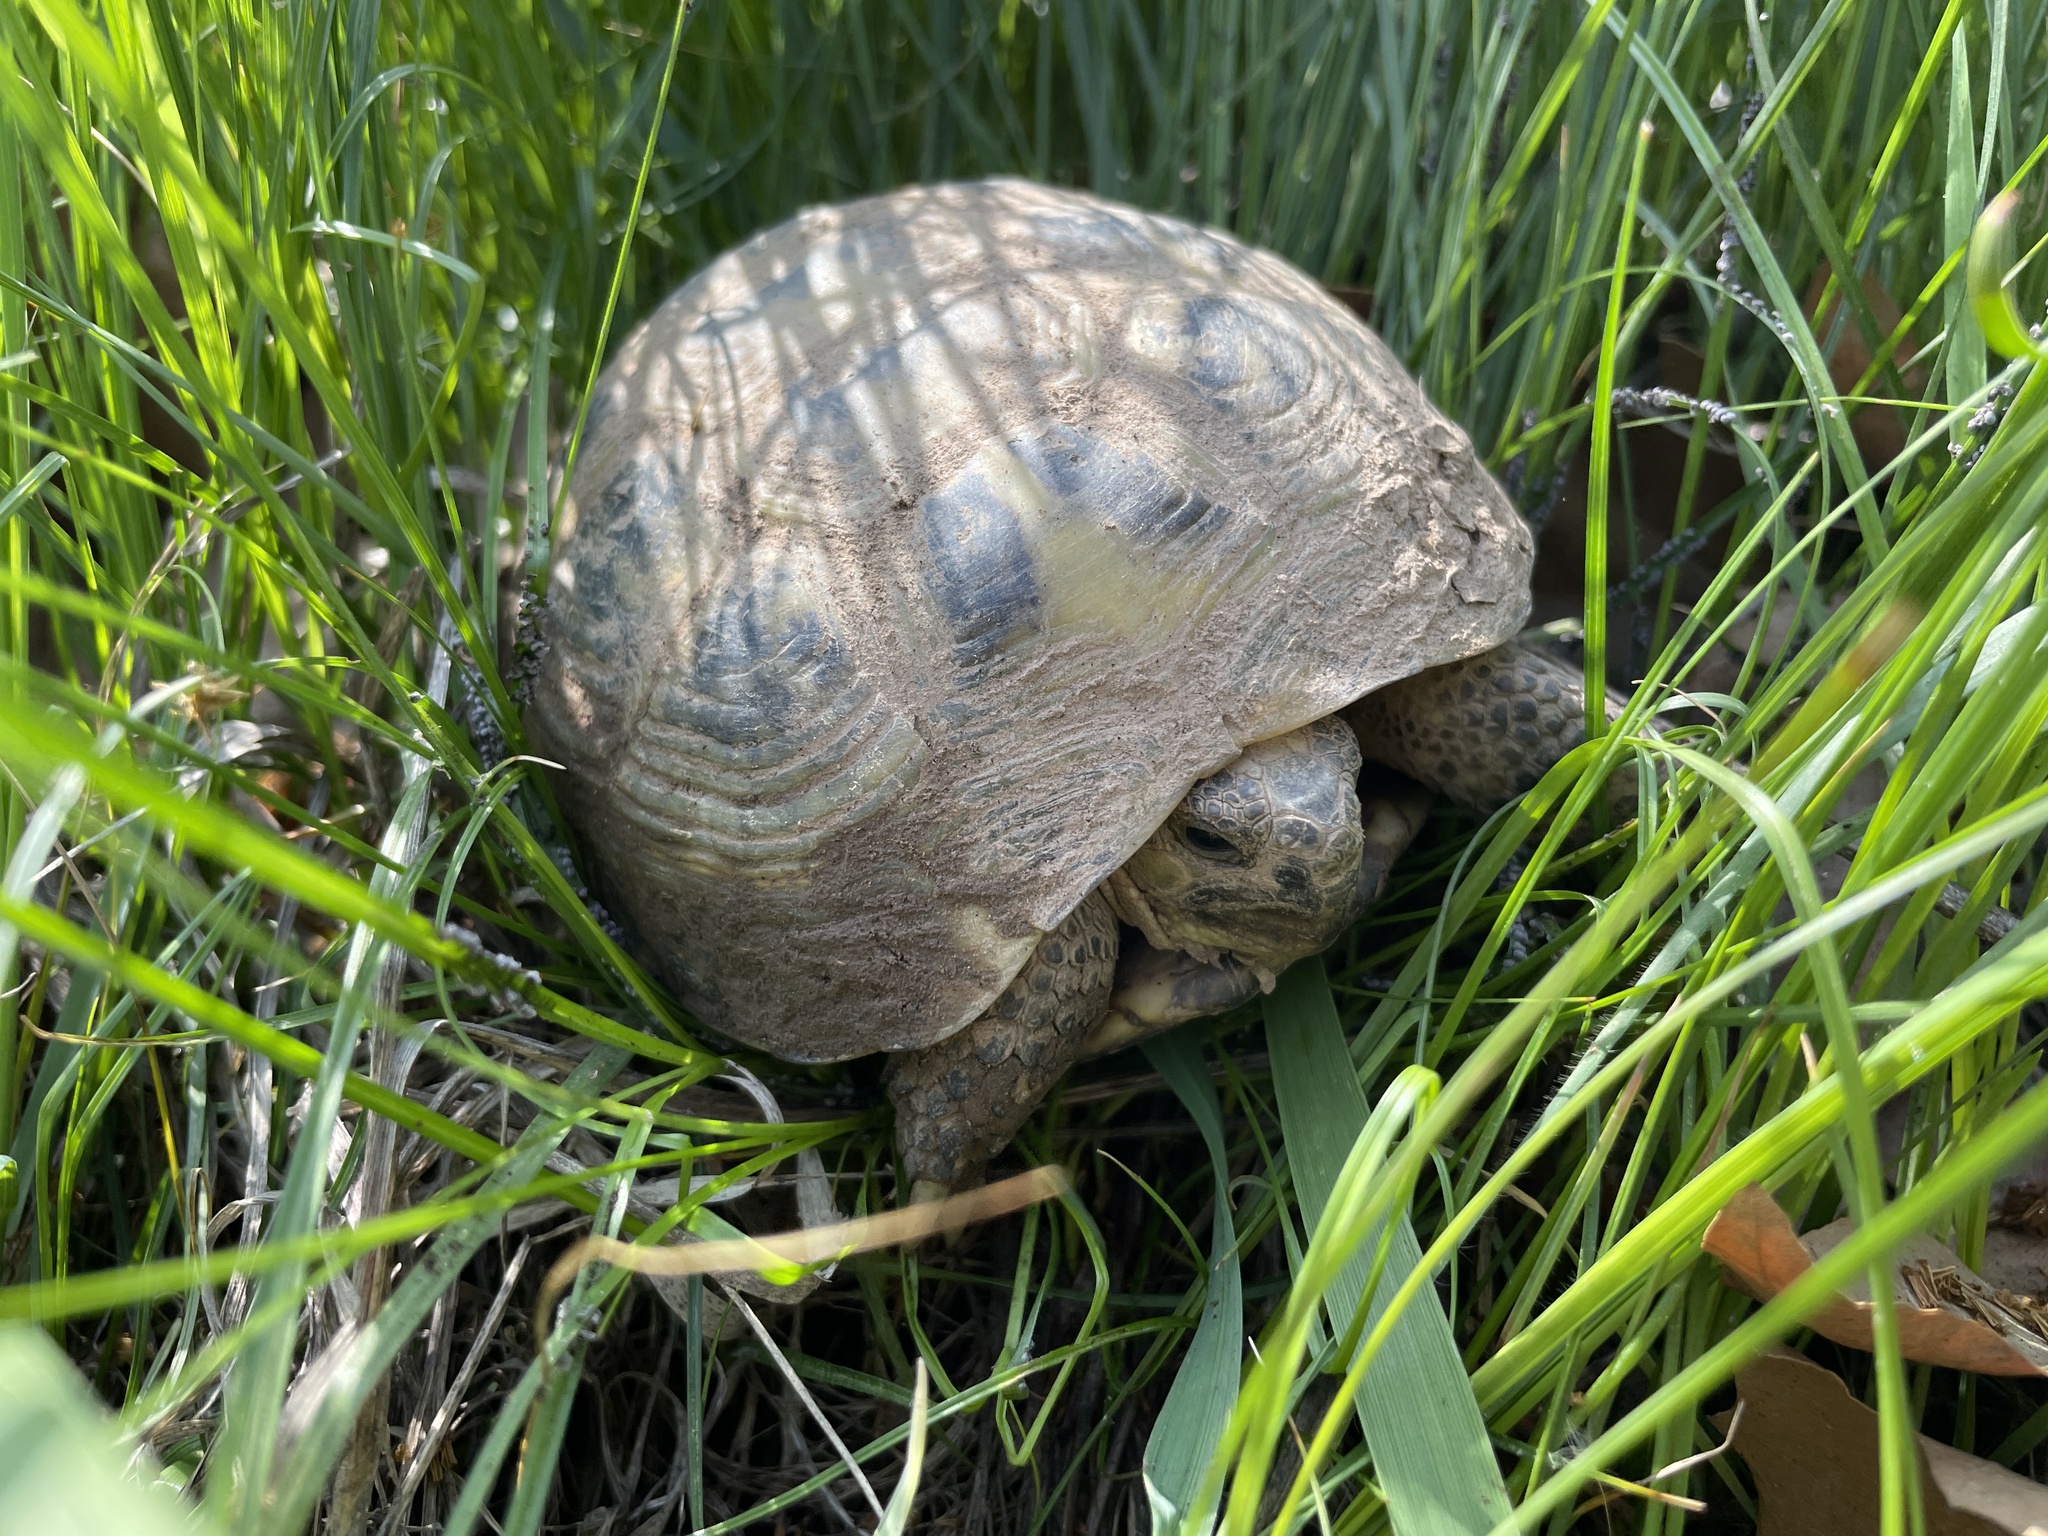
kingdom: Animalia
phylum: Chordata
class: Testudines
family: Testudinidae
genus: Testudo
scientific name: Testudo horsfieldii
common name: Central asia tortoise
